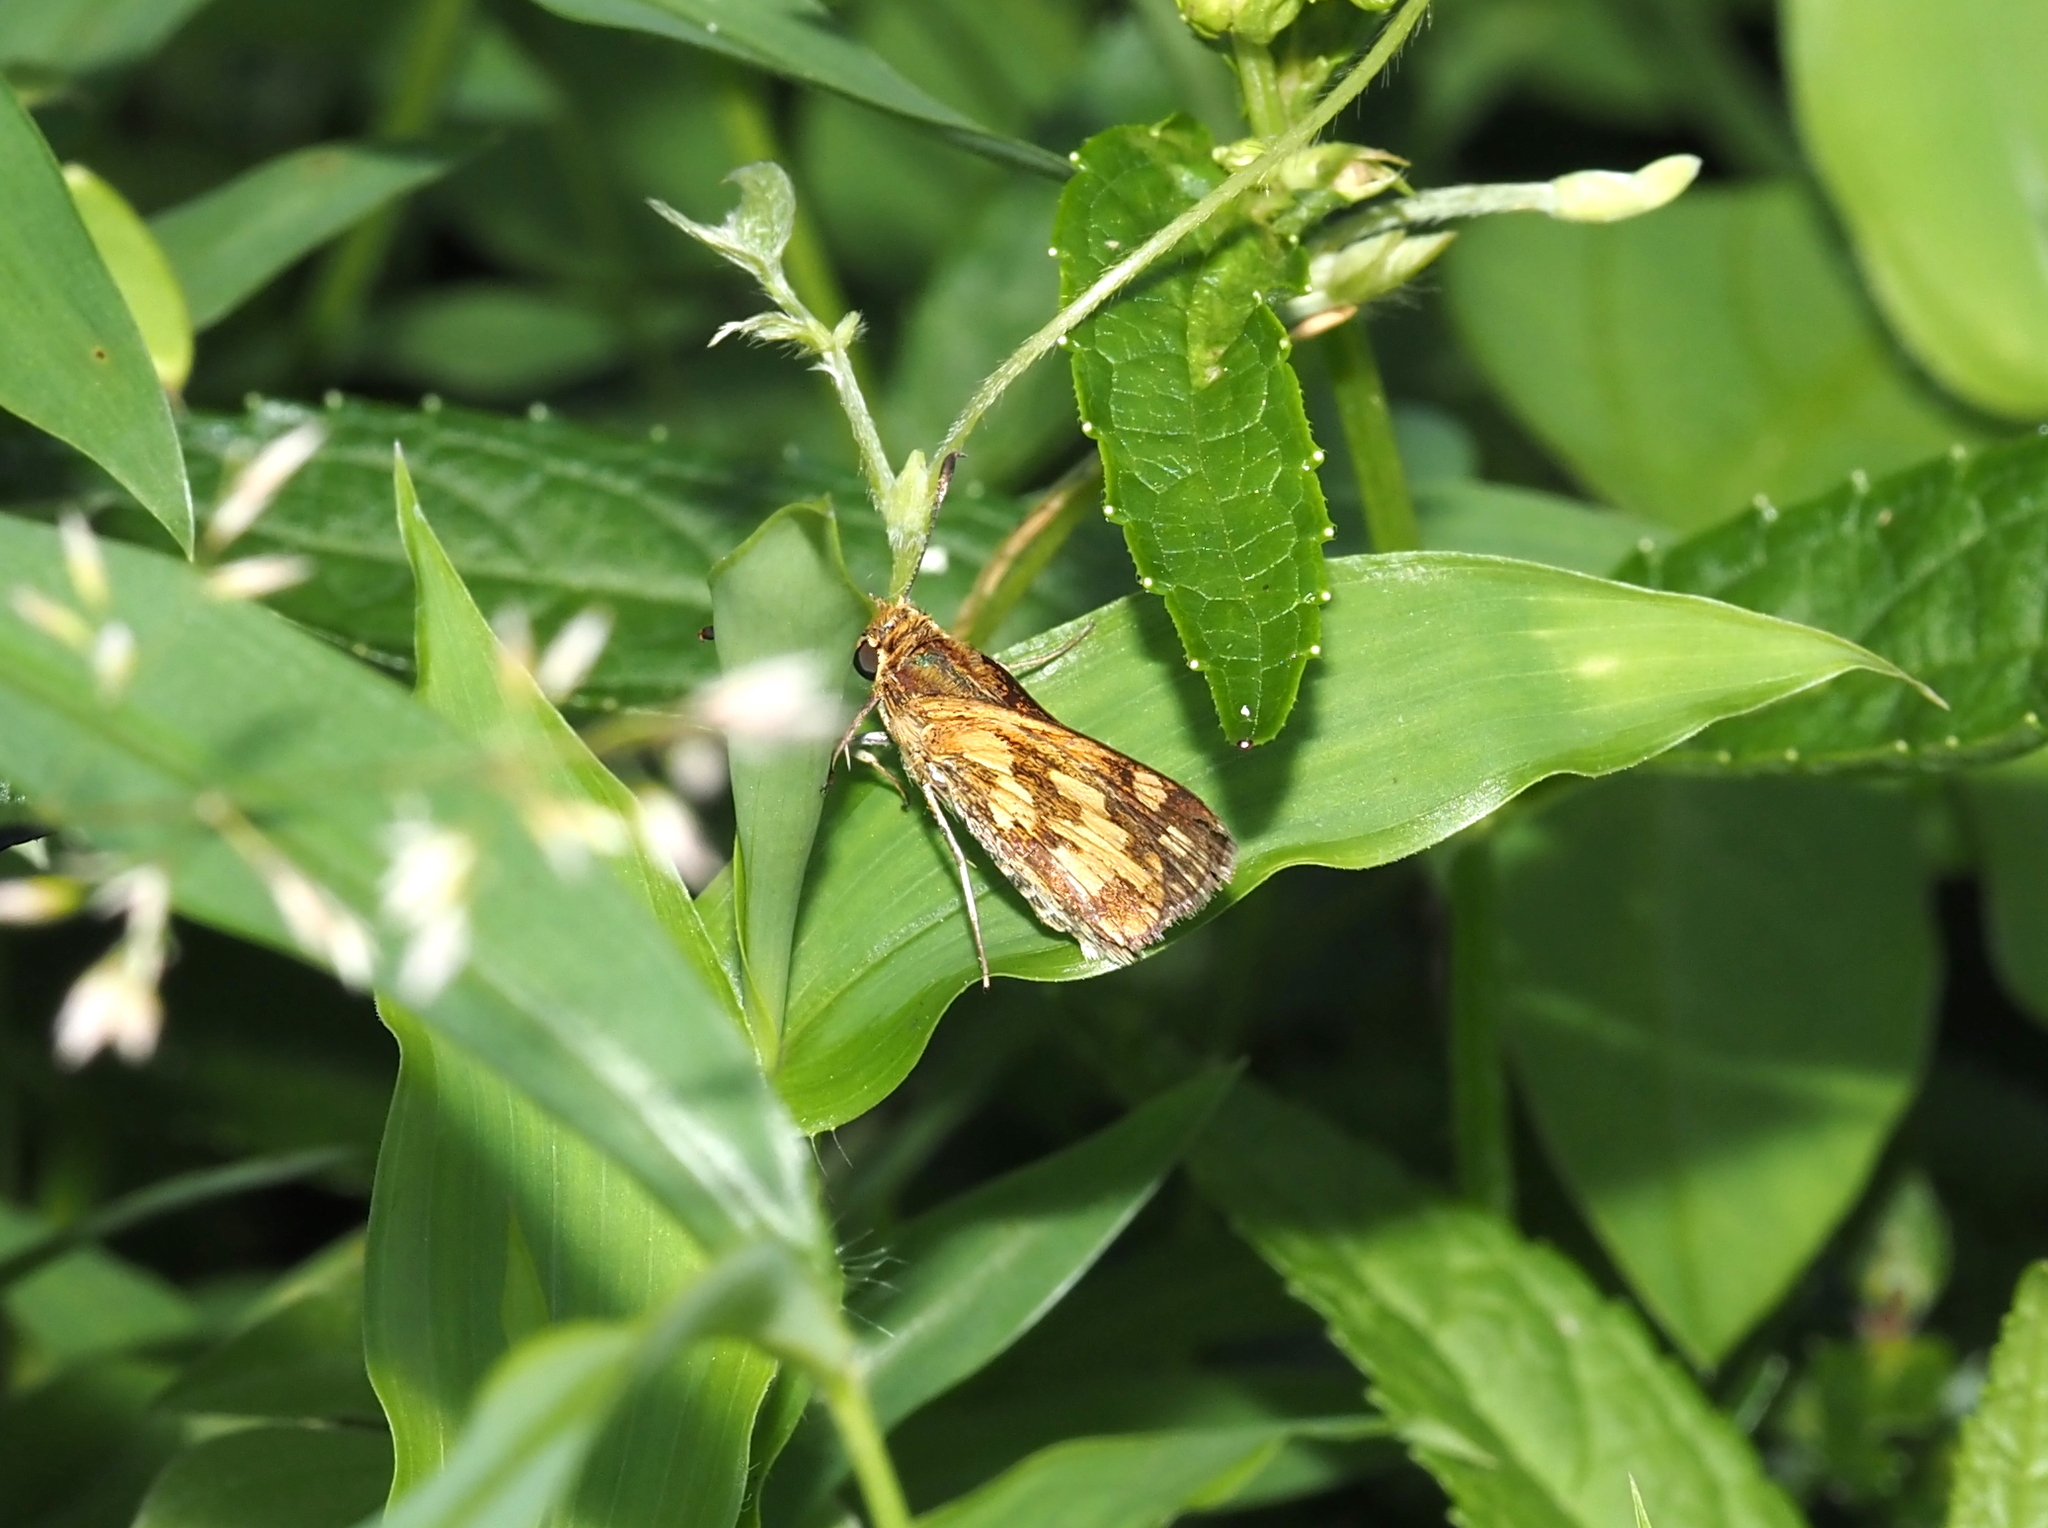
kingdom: Animalia
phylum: Arthropoda
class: Insecta
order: Lepidoptera
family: Hesperiidae
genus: Polites
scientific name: Polites coras
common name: Peck's skipper
